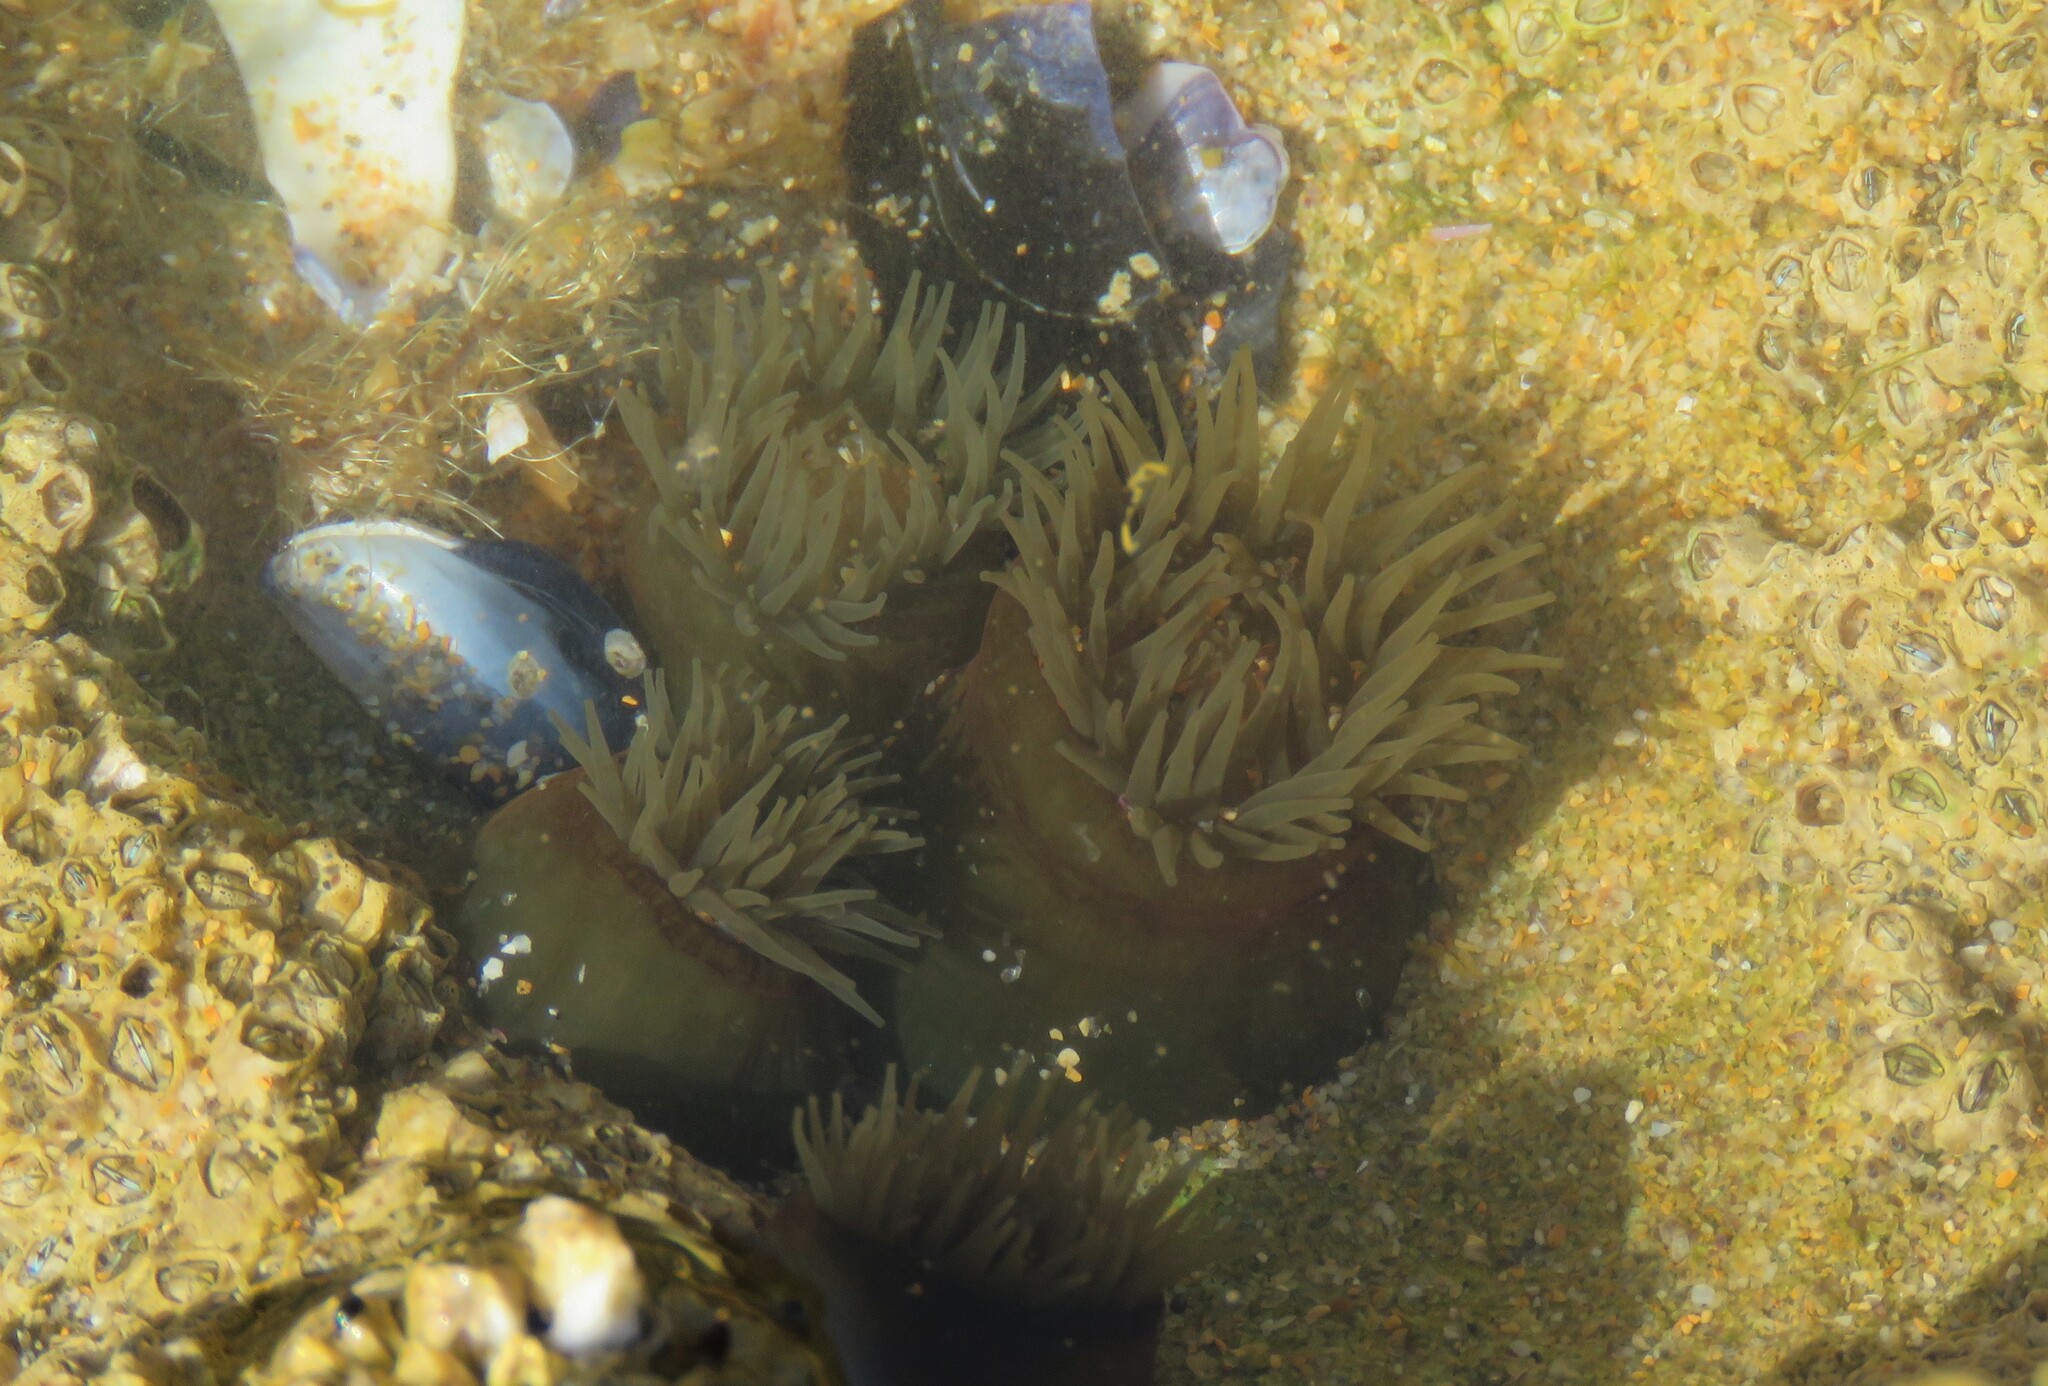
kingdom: Animalia
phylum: Cnidaria
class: Anthozoa
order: Actiniaria
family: Actiniidae
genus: Actinia
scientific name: Actinia equina
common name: Beadlet anemone
